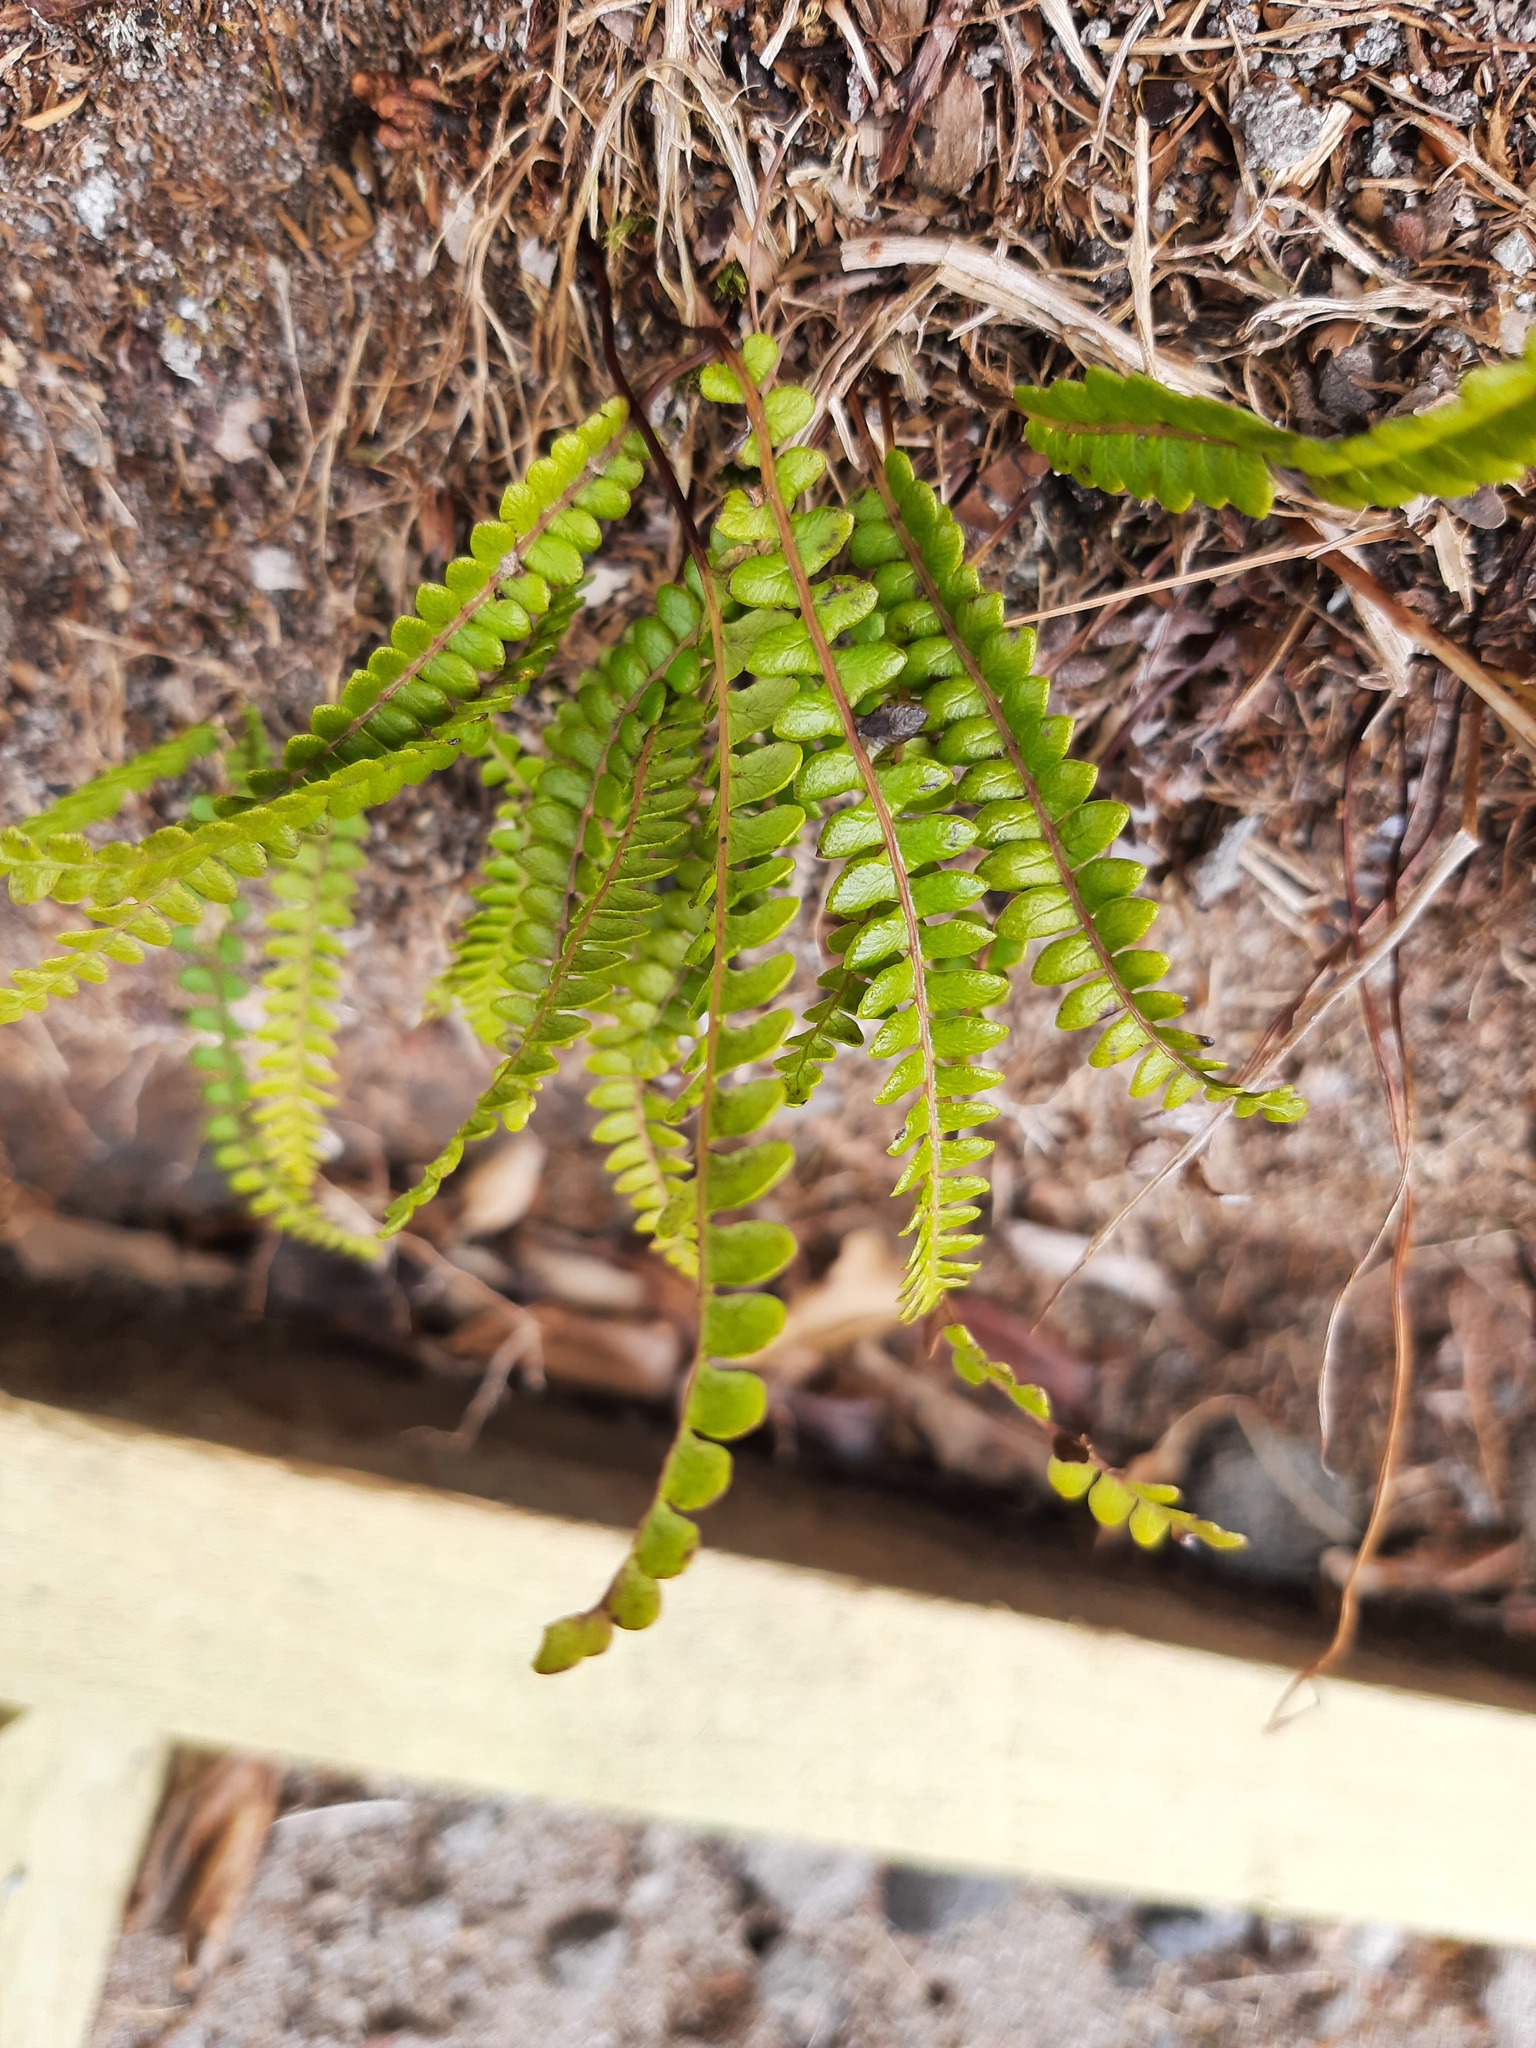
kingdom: Plantae
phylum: Tracheophyta
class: Polypodiopsida
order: Polypodiales
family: Blechnaceae
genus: Austroblechnum
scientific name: Austroblechnum penna-marina
